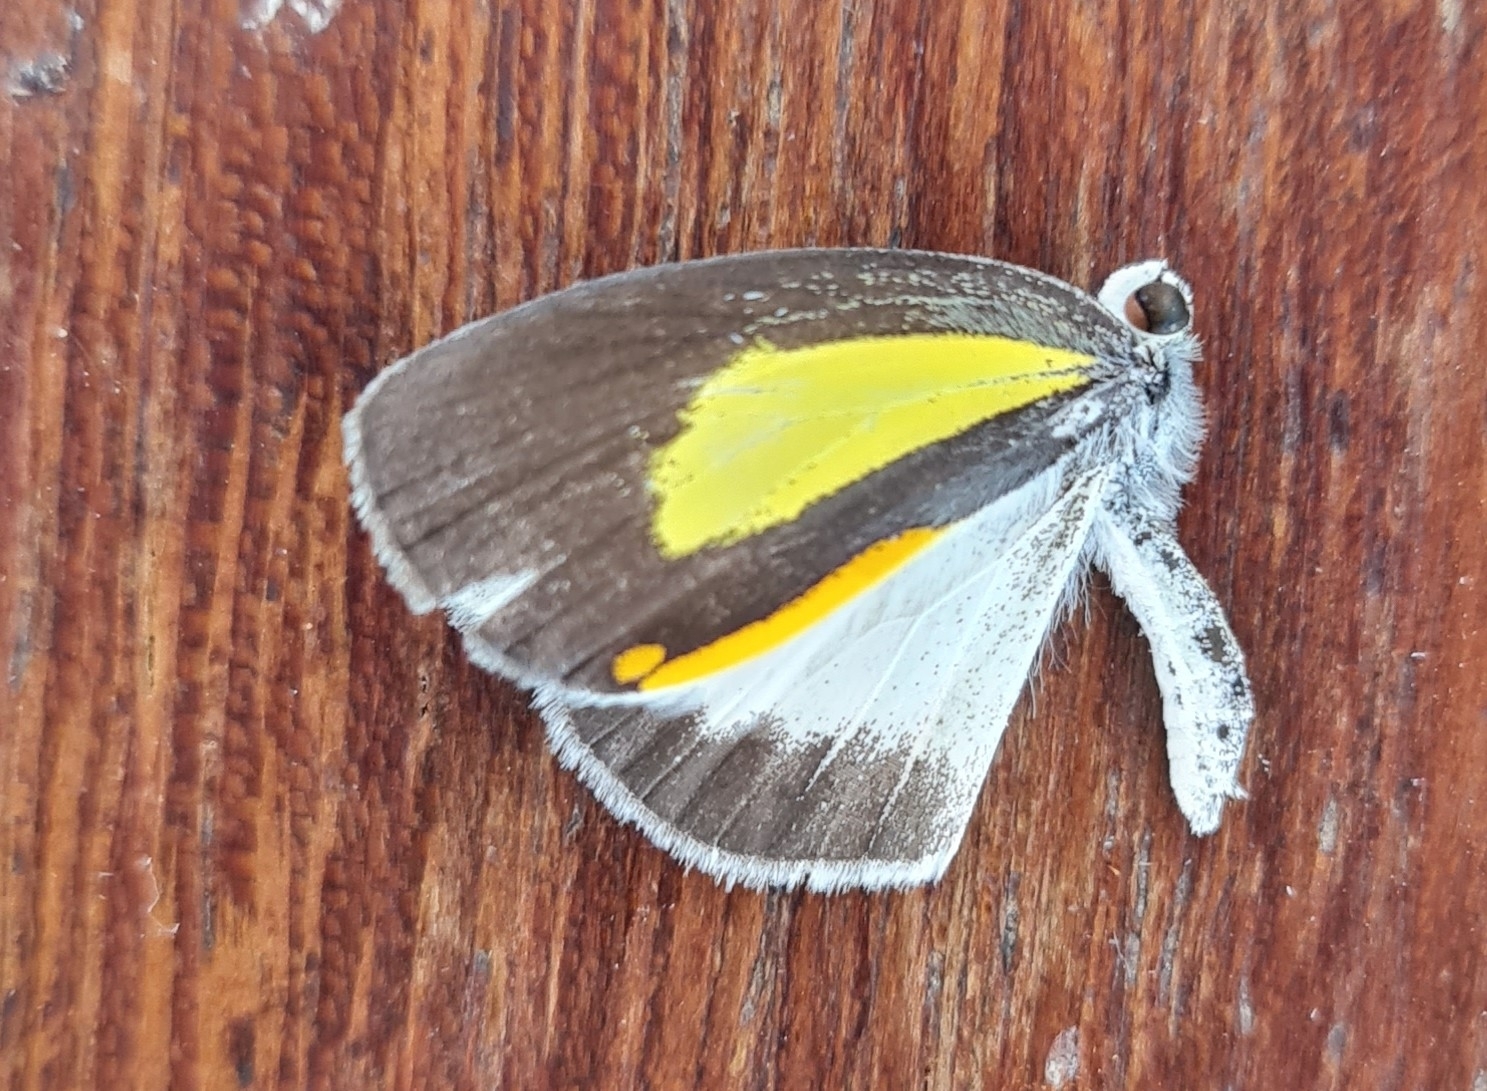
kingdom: Animalia
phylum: Arthropoda
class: Insecta
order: Lepidoptera
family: Pieridae
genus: Eurema
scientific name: Eurema elathea
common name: Banded yellow
